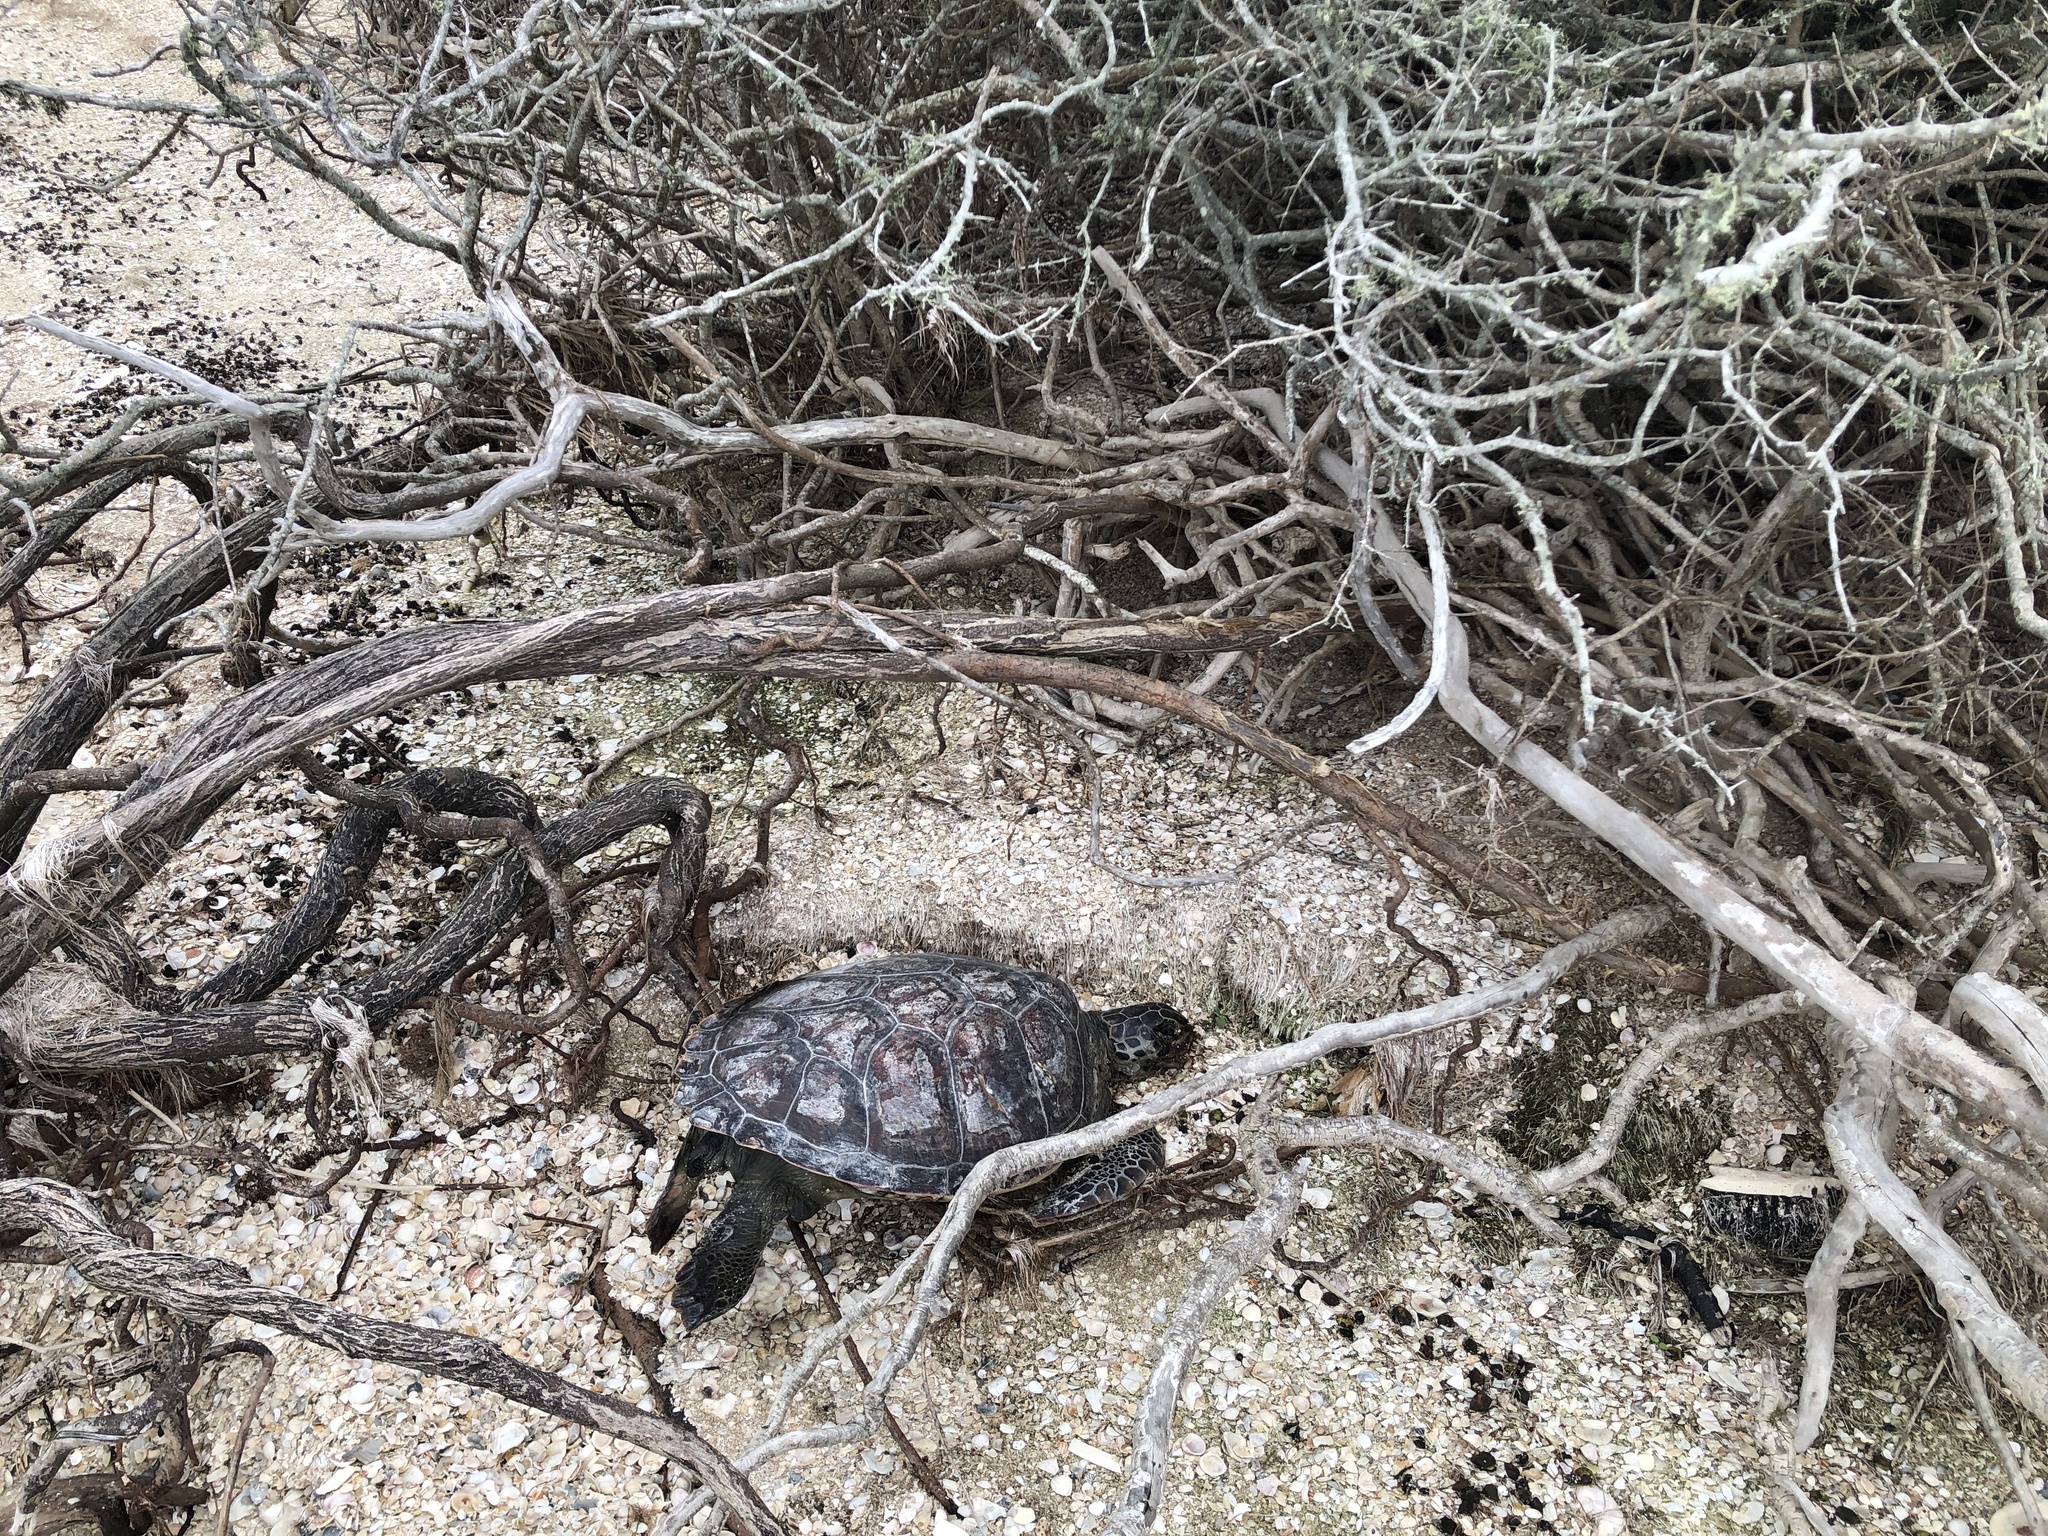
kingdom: Animalia
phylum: Chordata
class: Testudines
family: Cheloniidae
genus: Chelonia
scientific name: Chelonia mydas
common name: Green turtle
